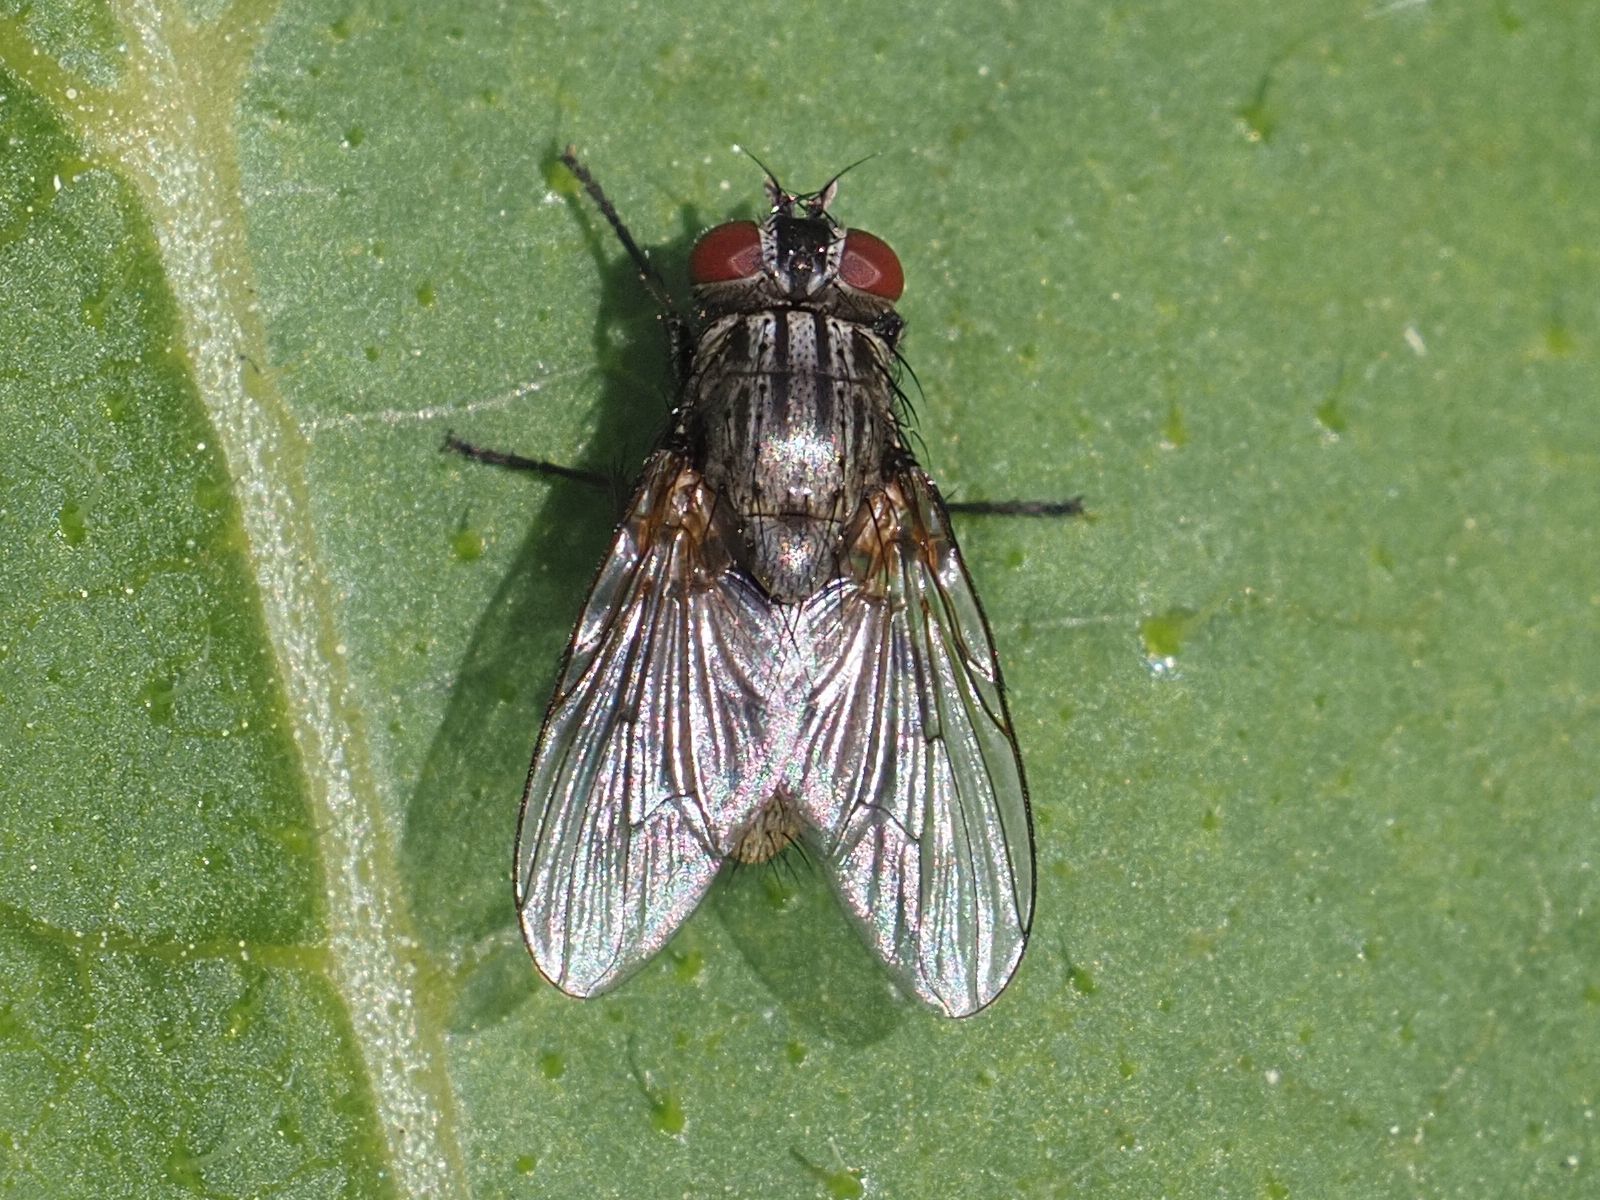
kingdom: Animalia
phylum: Arthropoda
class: Insecta
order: Diptera
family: Muscidae
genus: Myospila
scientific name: Myospila meditabunda
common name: Muscoid fly
